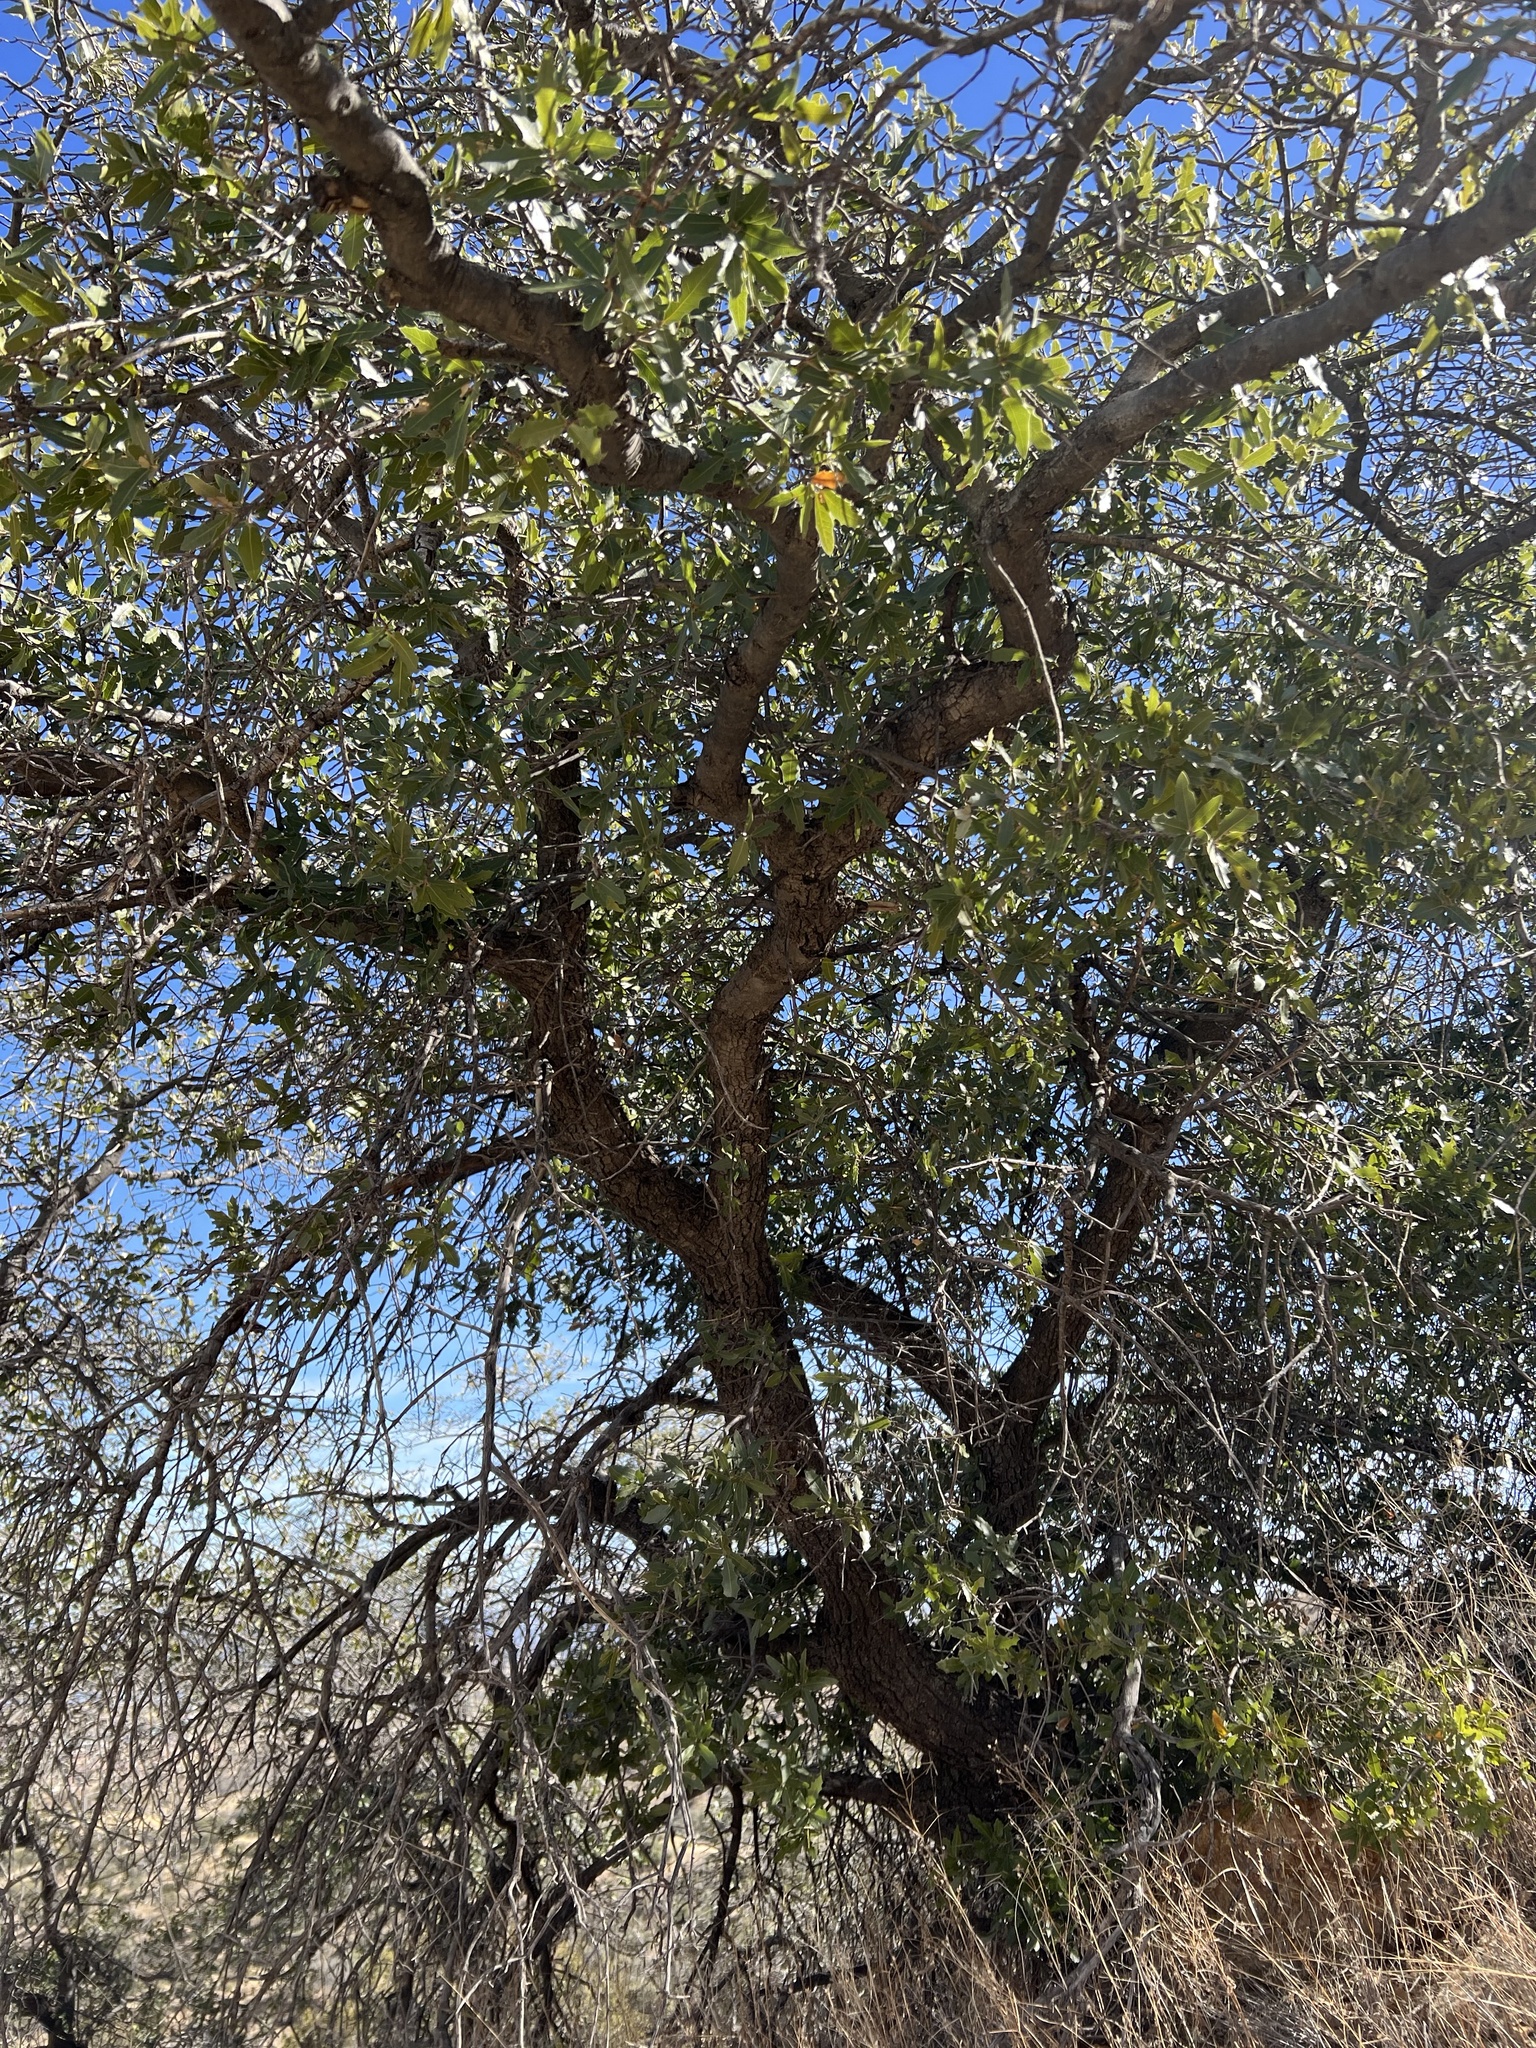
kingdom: Plantae
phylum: Tracheophyta
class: Magnoliopsida
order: Fagales
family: Fagaceae
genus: Quercus
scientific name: Quercus emoryi
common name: Emory oak
